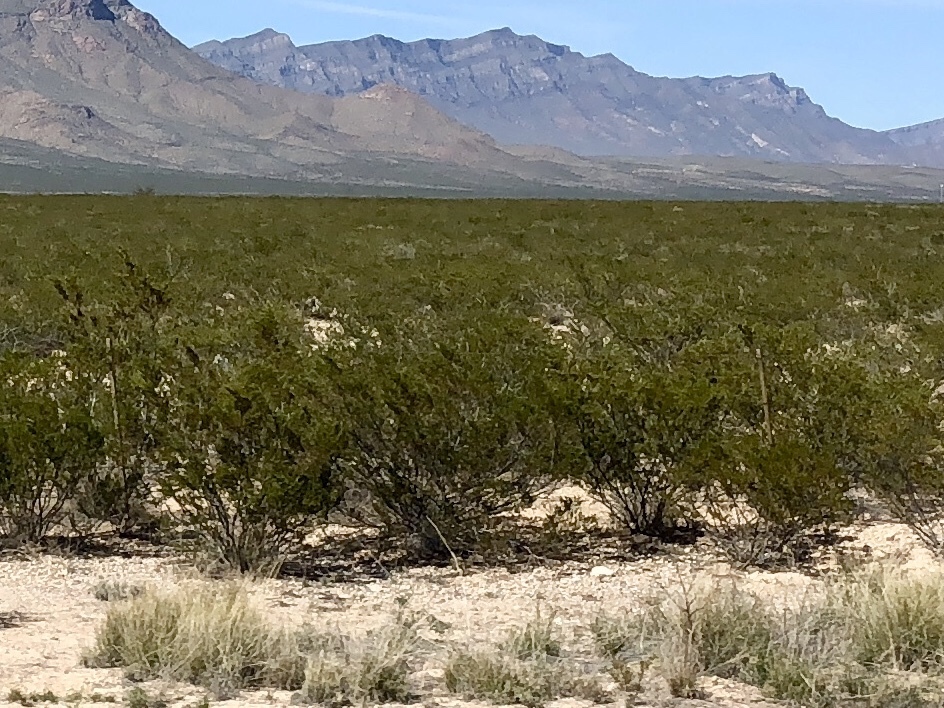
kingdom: Plantae
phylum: Tracheophyta
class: Magnoliopsida
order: Zygophyllales
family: Zygophyllaceae
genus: Larrea
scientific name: Larrea tridentata
